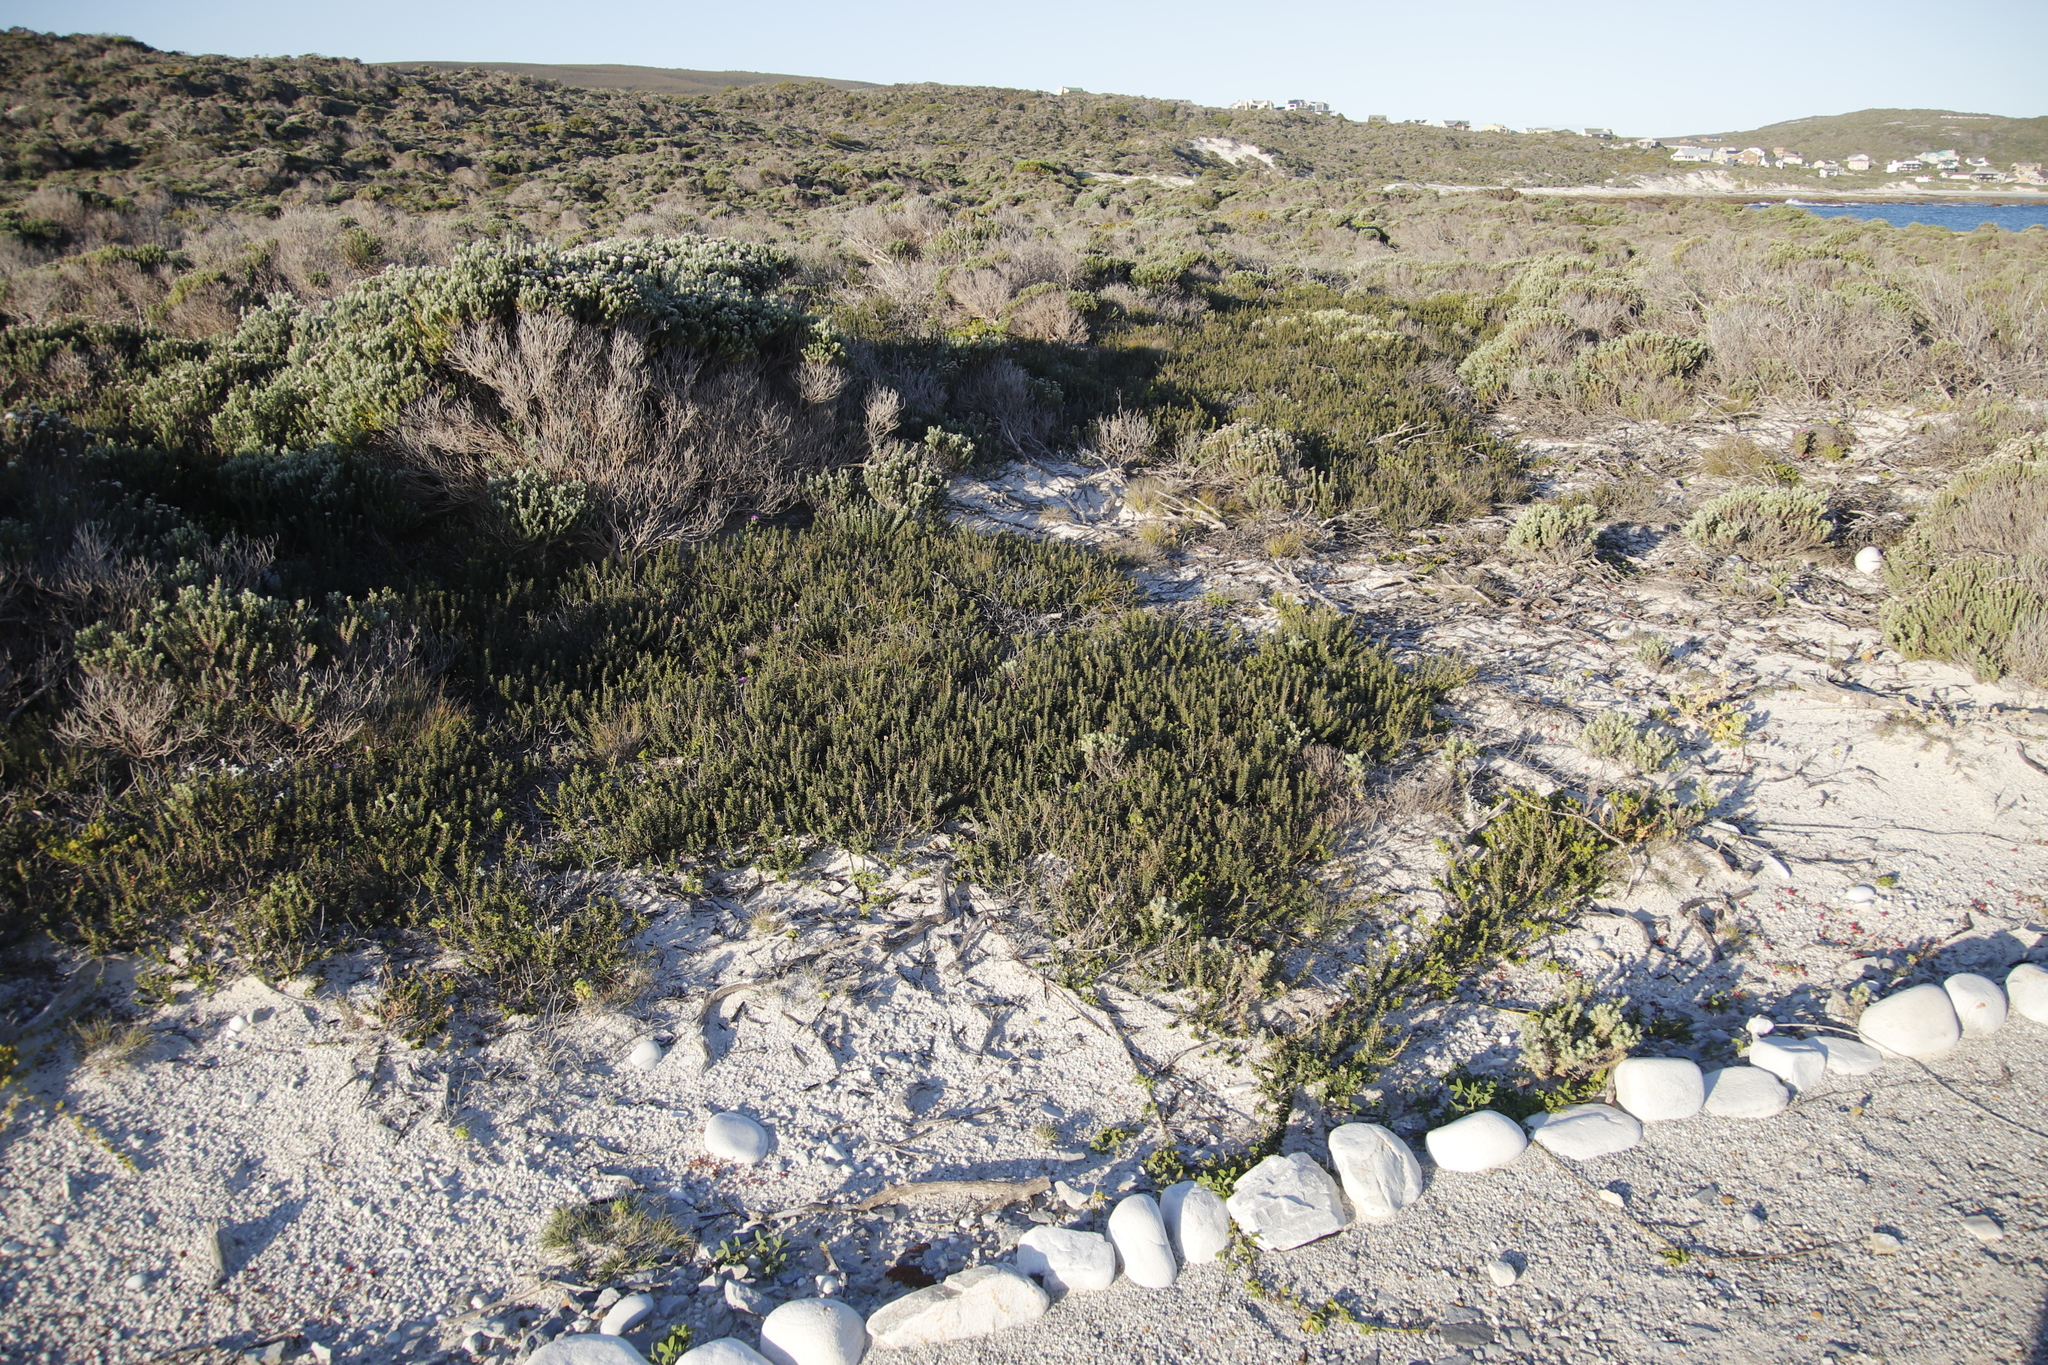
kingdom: Plantae
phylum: Tracheophyta
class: Magnoliopsida
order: Fagales
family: Myricaceae
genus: Morella
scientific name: Morella cordifolia
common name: Waxberry
